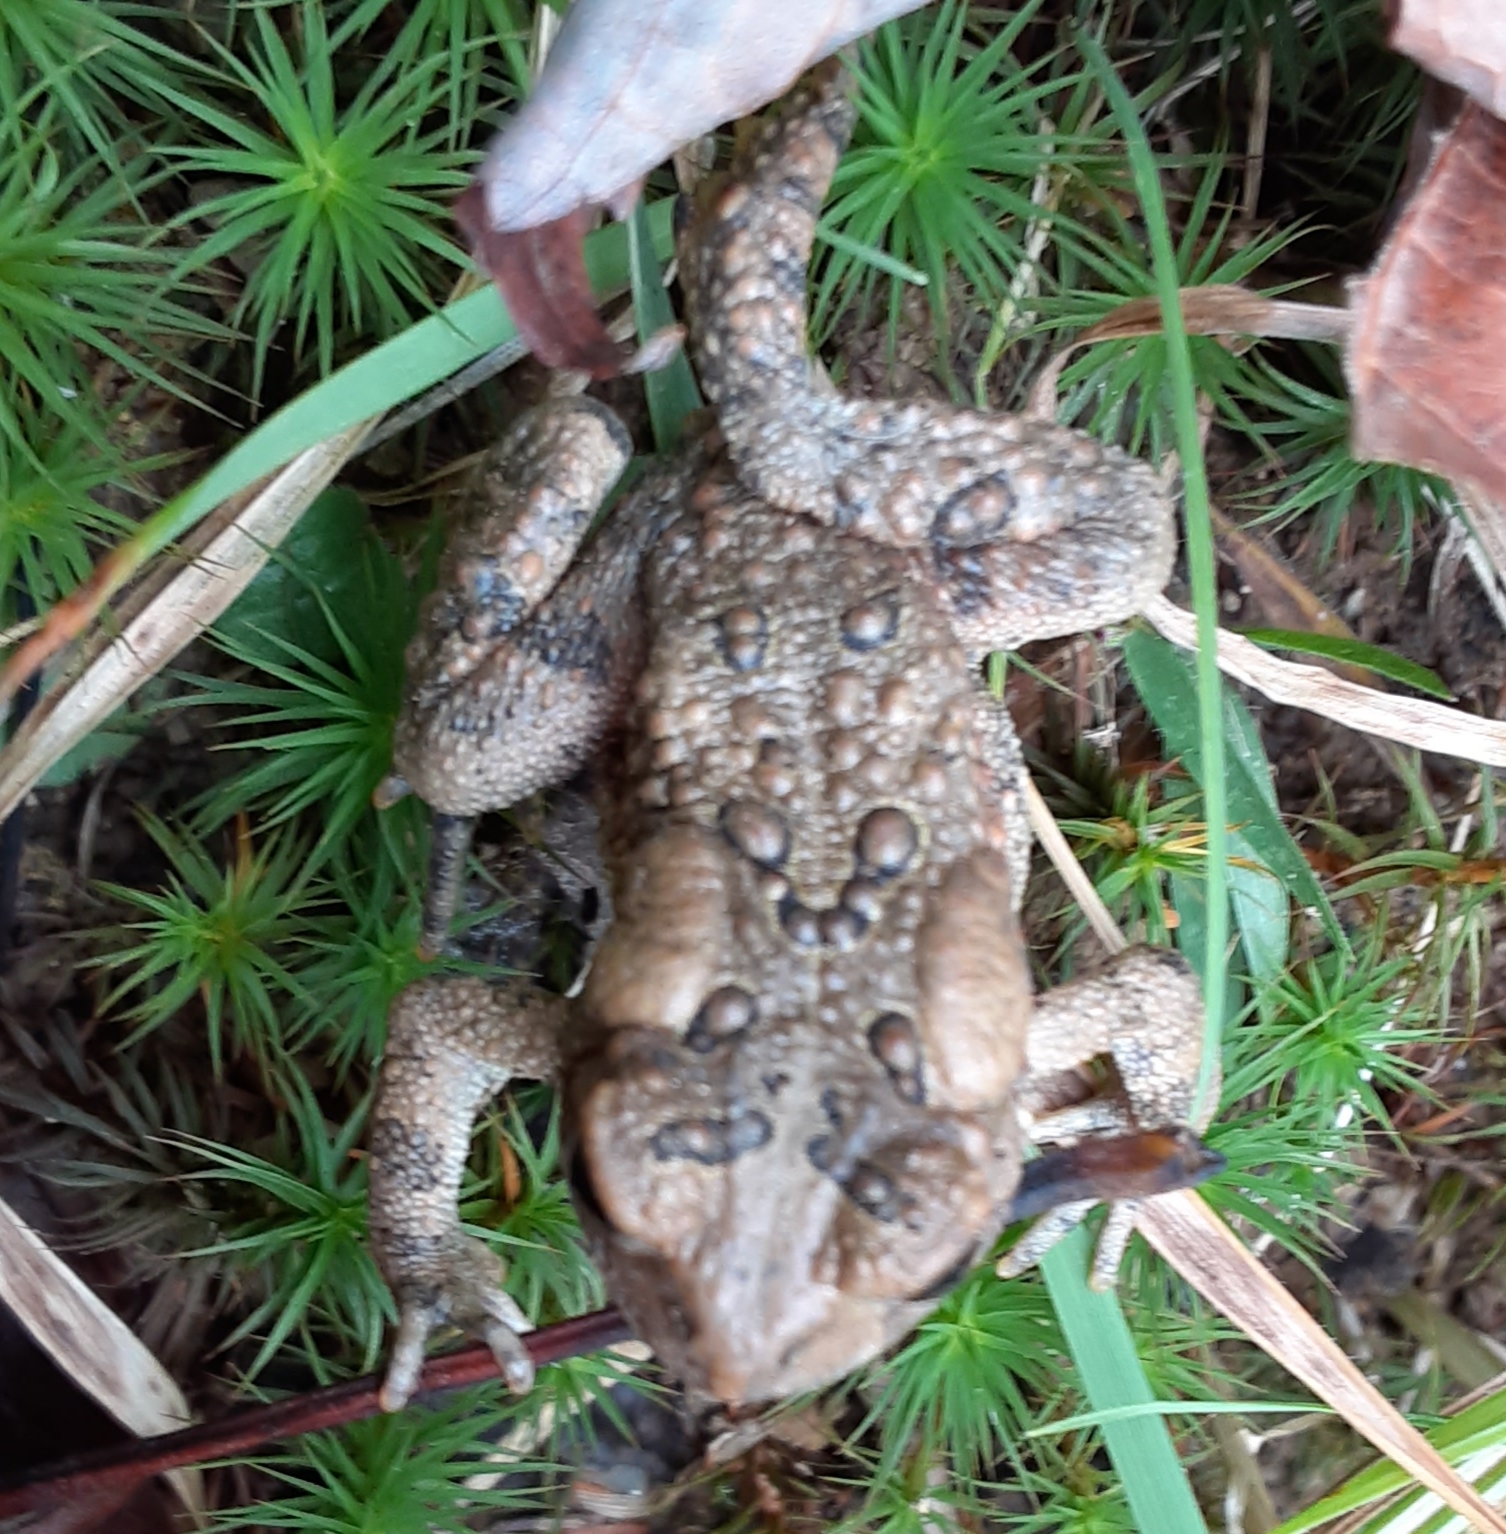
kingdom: Animalia
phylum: Chordata
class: Amphibia
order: Anura
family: Bufonidae
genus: Anaxyrus
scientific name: Anaxyrus americanus
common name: American toad
